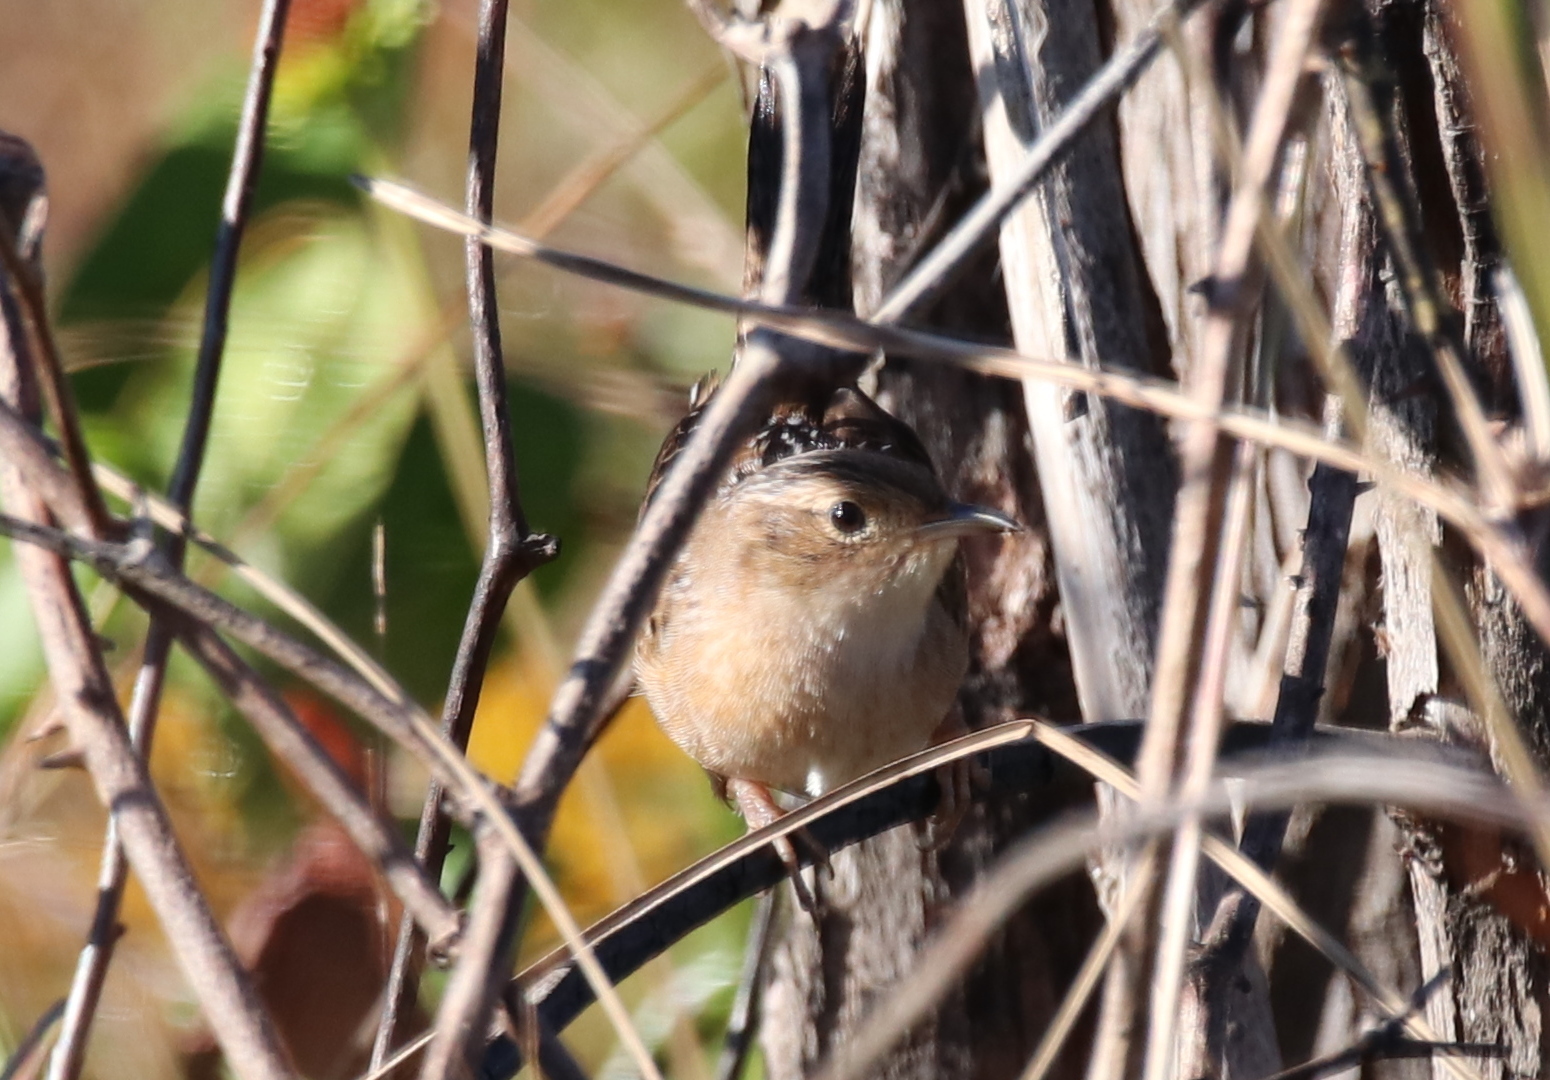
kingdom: Animalia
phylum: Chordata
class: Aves
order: Passeriformes
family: Troglodytidae
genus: Cistothorus
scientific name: Cistothorus platensis
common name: Sedge wren
